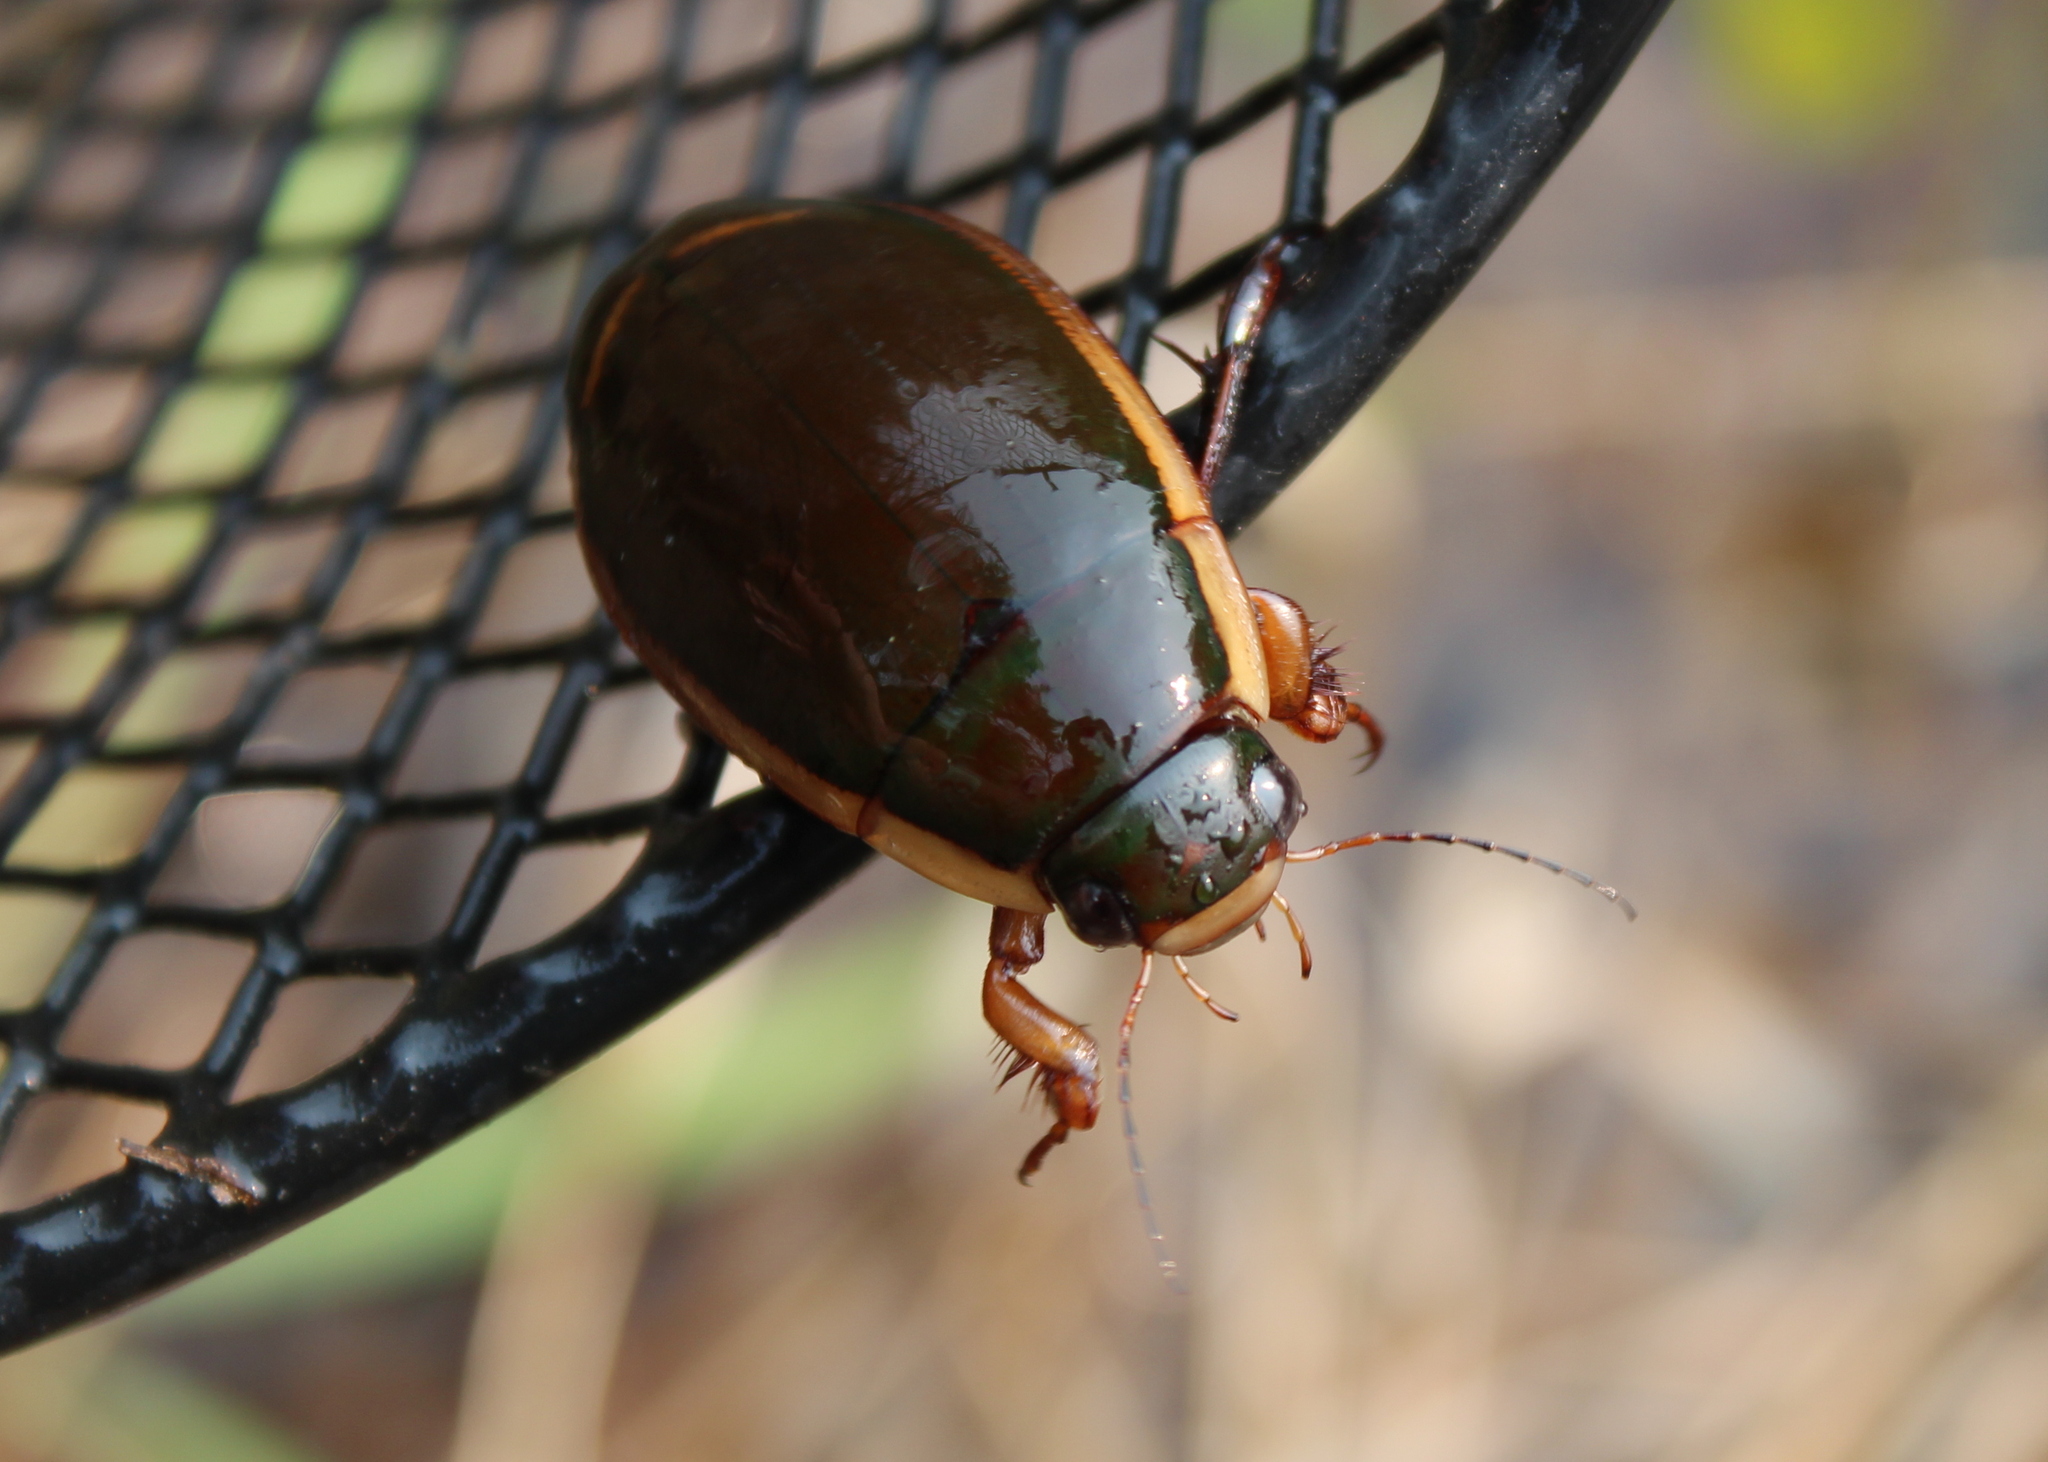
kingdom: Animalia
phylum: Arthropoda
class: Insecta
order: Coleoptera
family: Dytiscidae
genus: Dytiscus
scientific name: Dytiscus verticalis
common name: Vertical diving beetle
